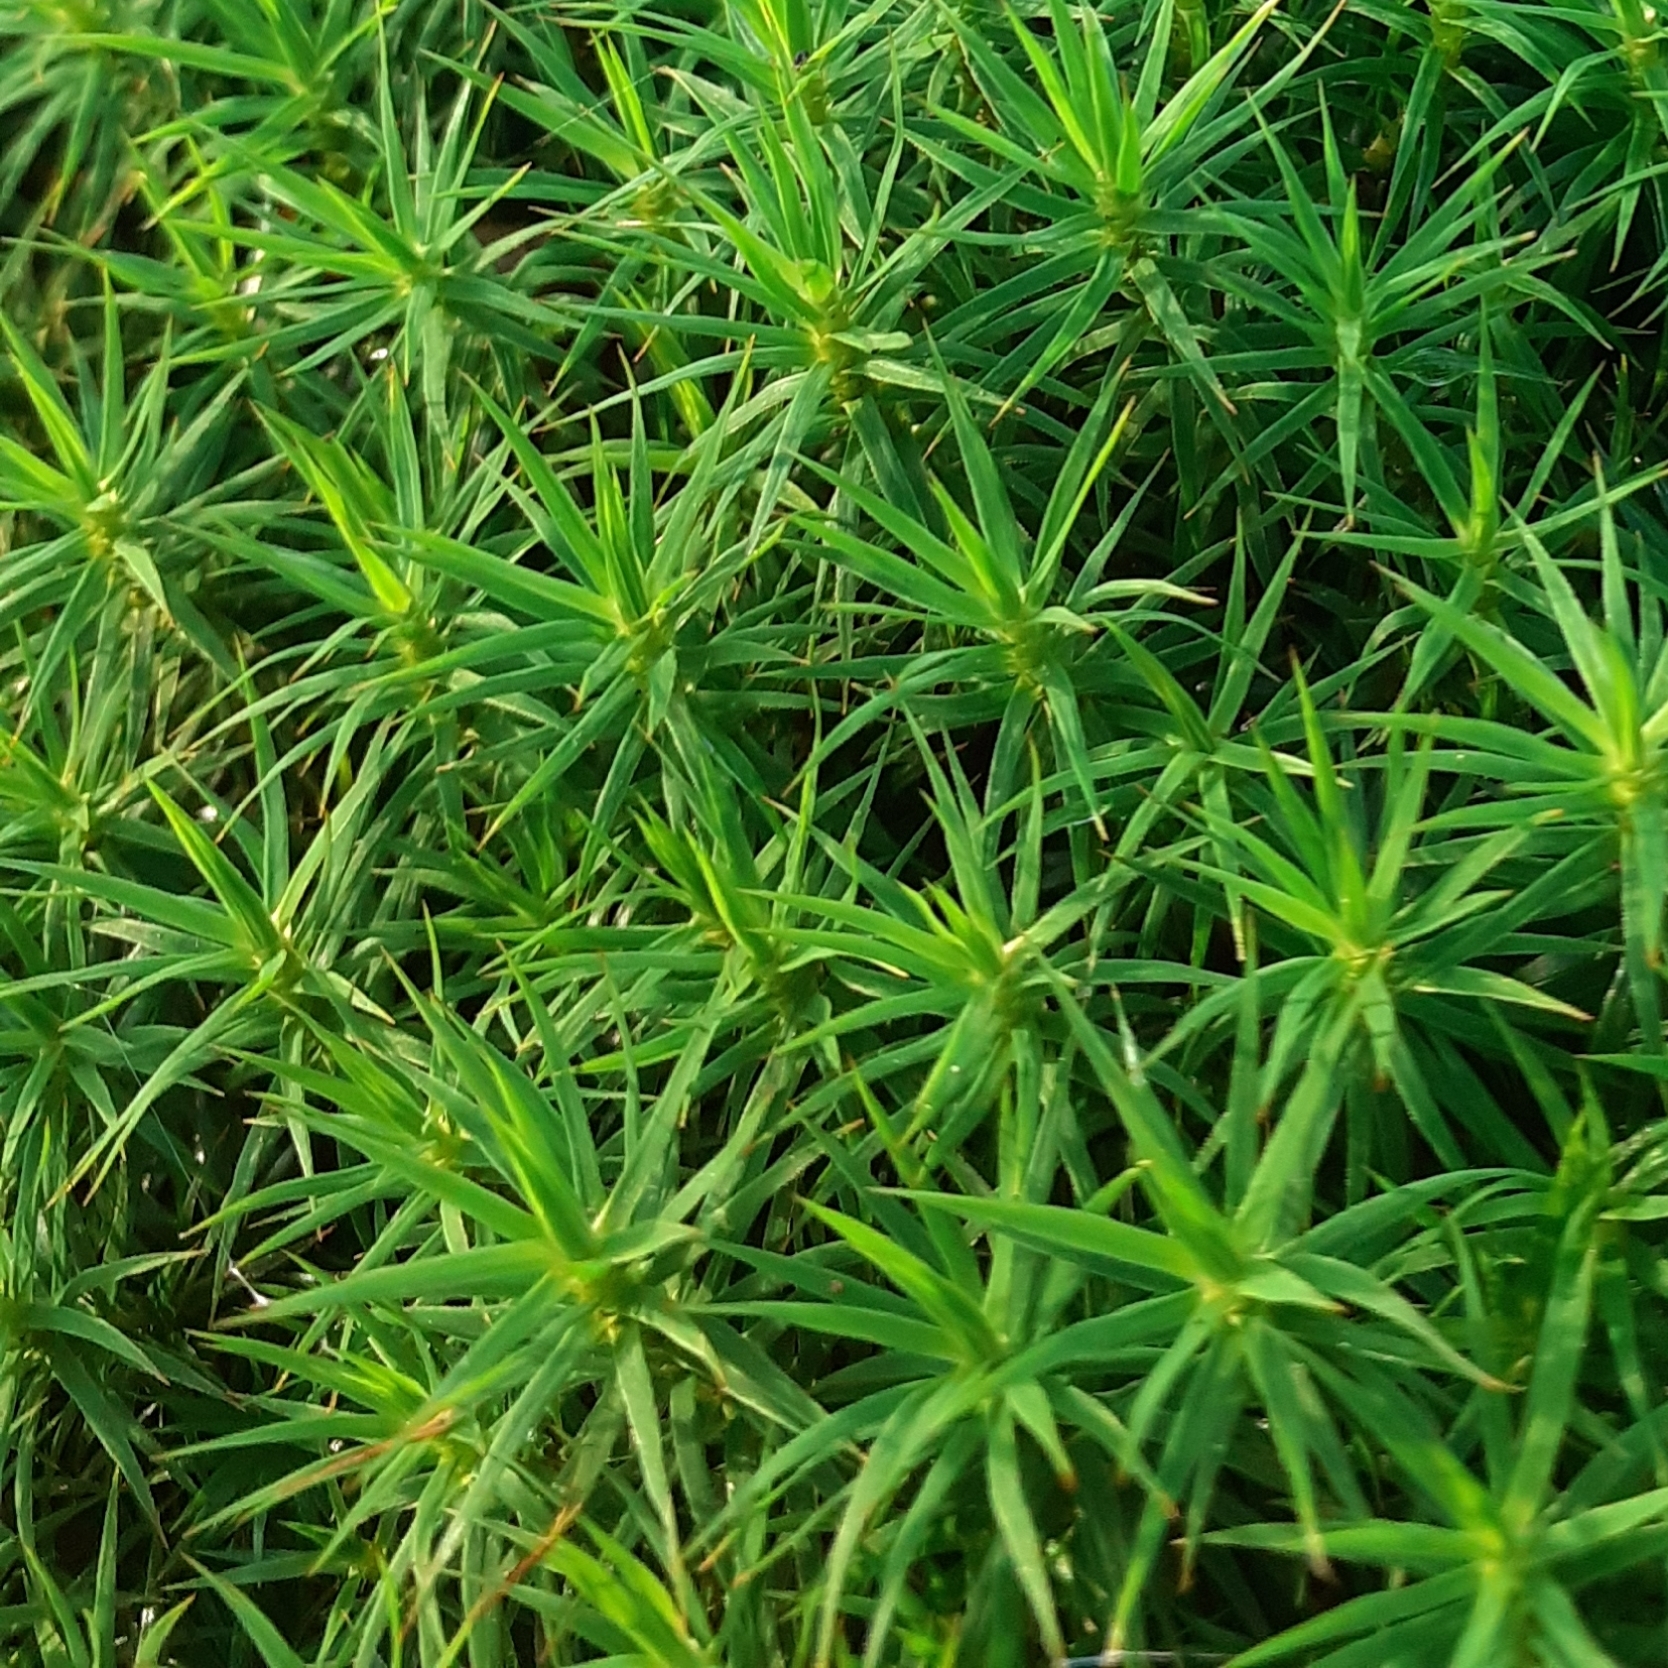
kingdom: Plantae
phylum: Bryophyta
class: Polytrichopsida
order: Polytrichales
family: Polytrichaceae
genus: Polytrichum
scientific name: Polytrichum formosum
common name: Bank haircap moss
